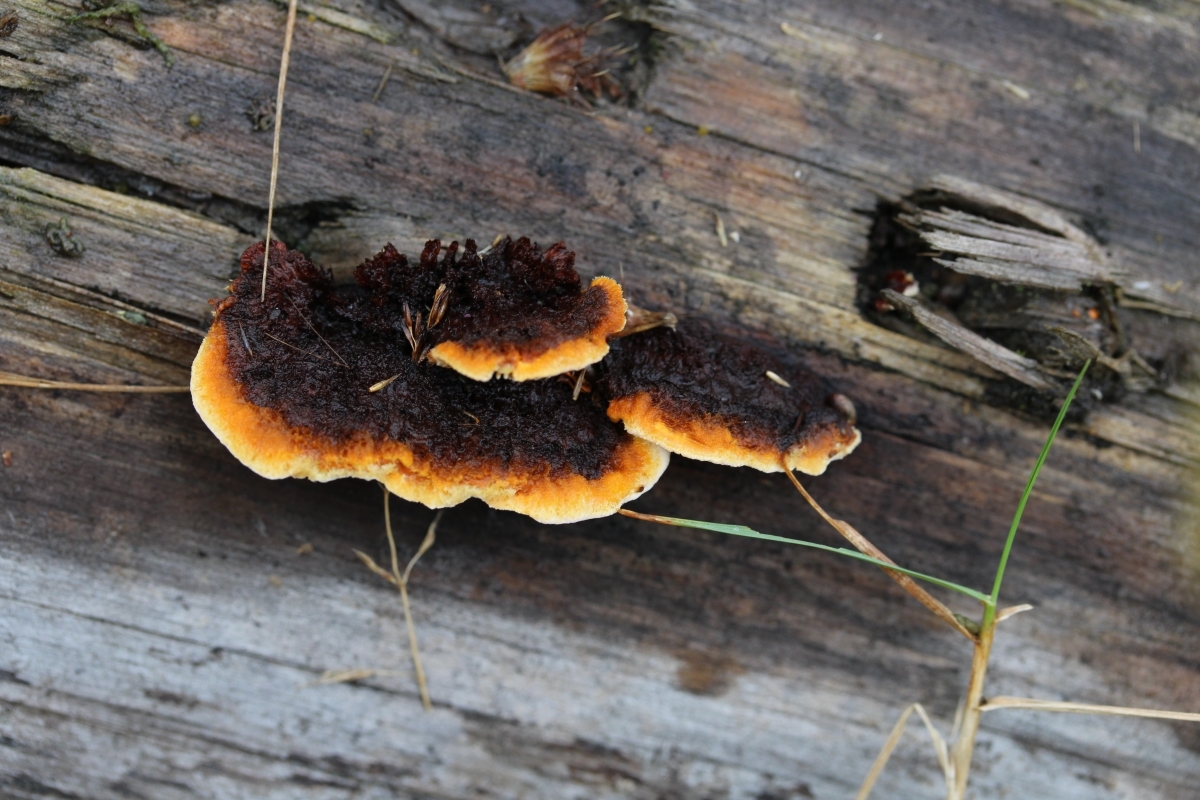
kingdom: Fungi
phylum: Basidiomycota
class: Agaricomycetes
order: Gloeophyllales
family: Gloeophyllaceae
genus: Gloeophyllum
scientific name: Gloeophyllum sepiarium
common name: Conifer mazegill
